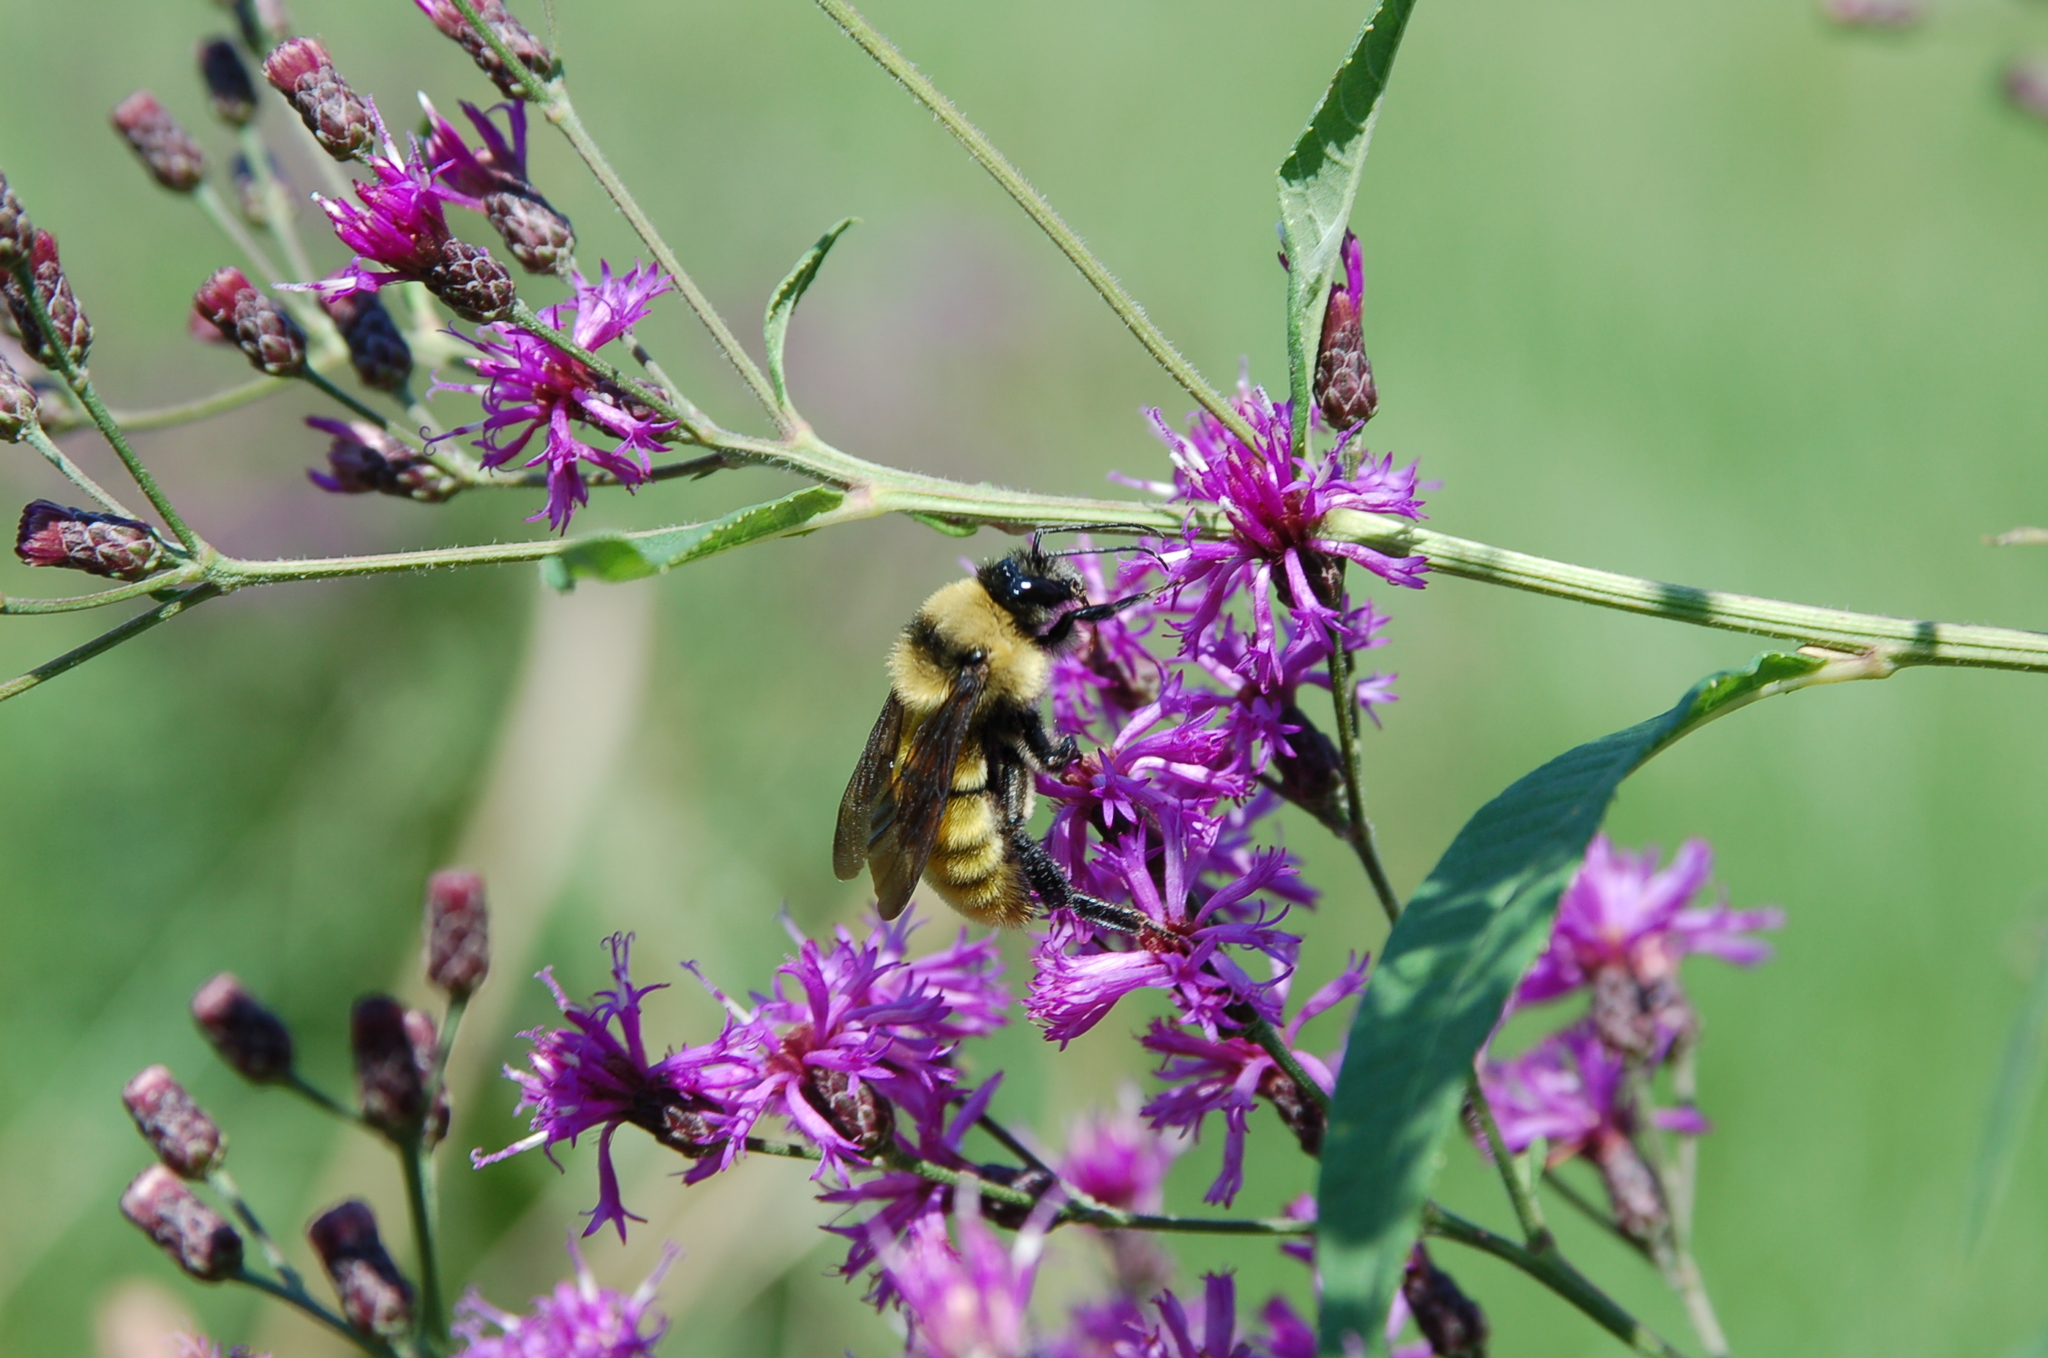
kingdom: Animalia
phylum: Arthropoda
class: Insecta
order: Hymenoptera
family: Apidae
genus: Bombus
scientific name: Bombus pensylvanicus
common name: Bumble bee
